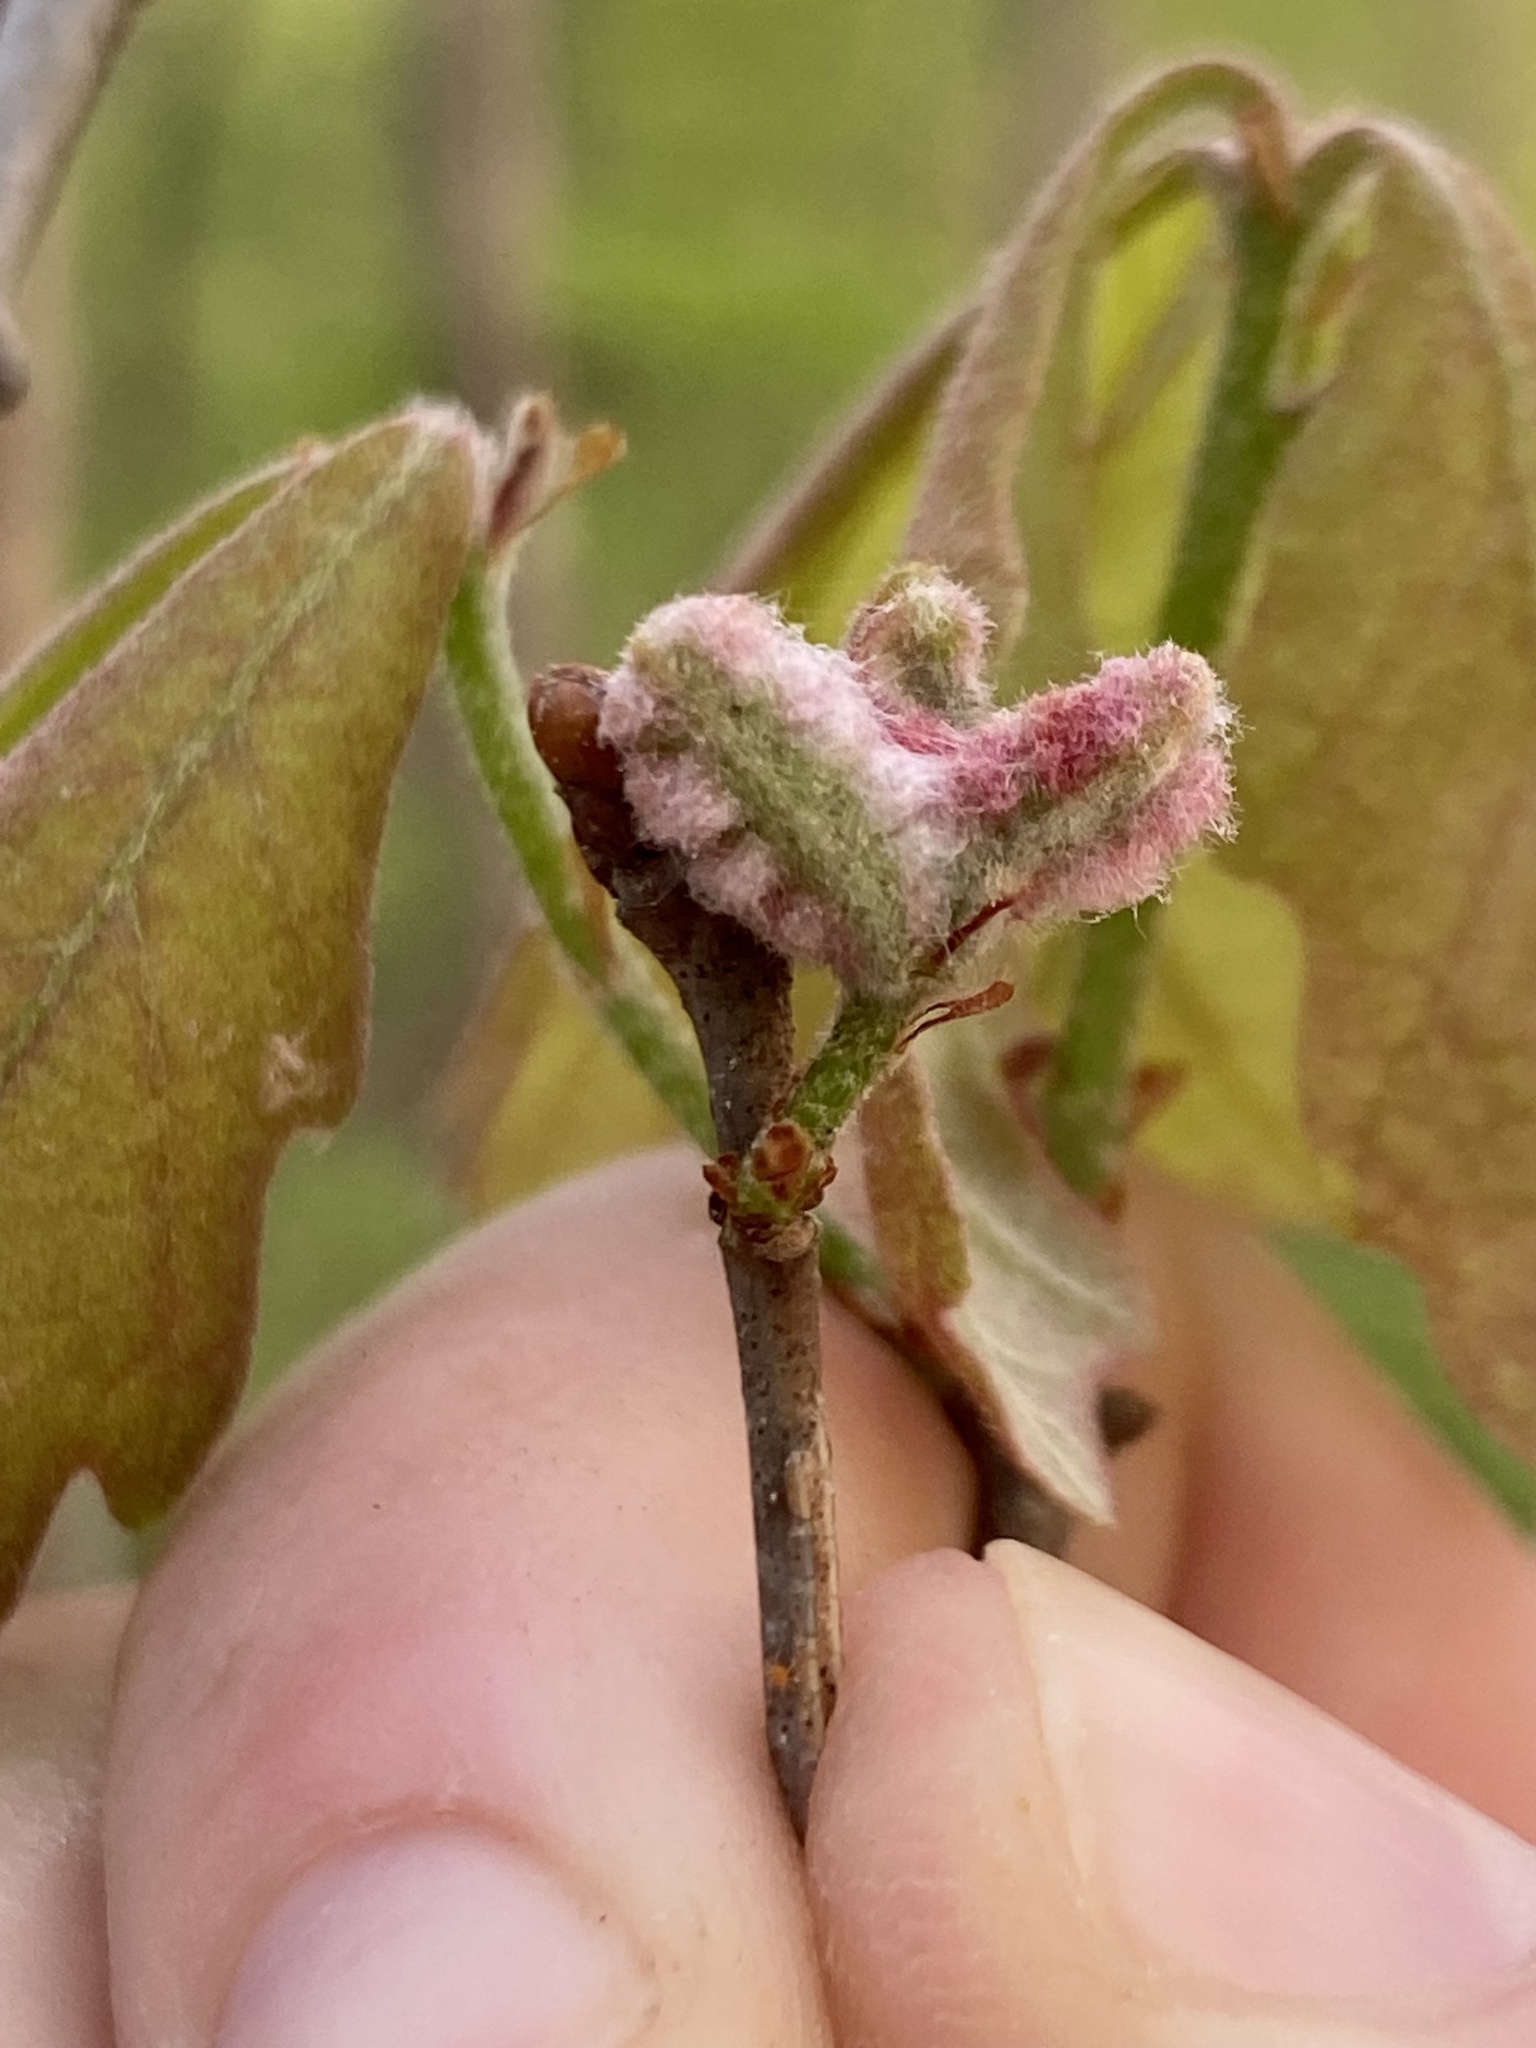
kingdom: Animalia
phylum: Arthropoda
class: Insecta
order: Diptera
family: Cecidomyiidae
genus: Macrodiplosis
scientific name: Macrodiplosis niveipila
